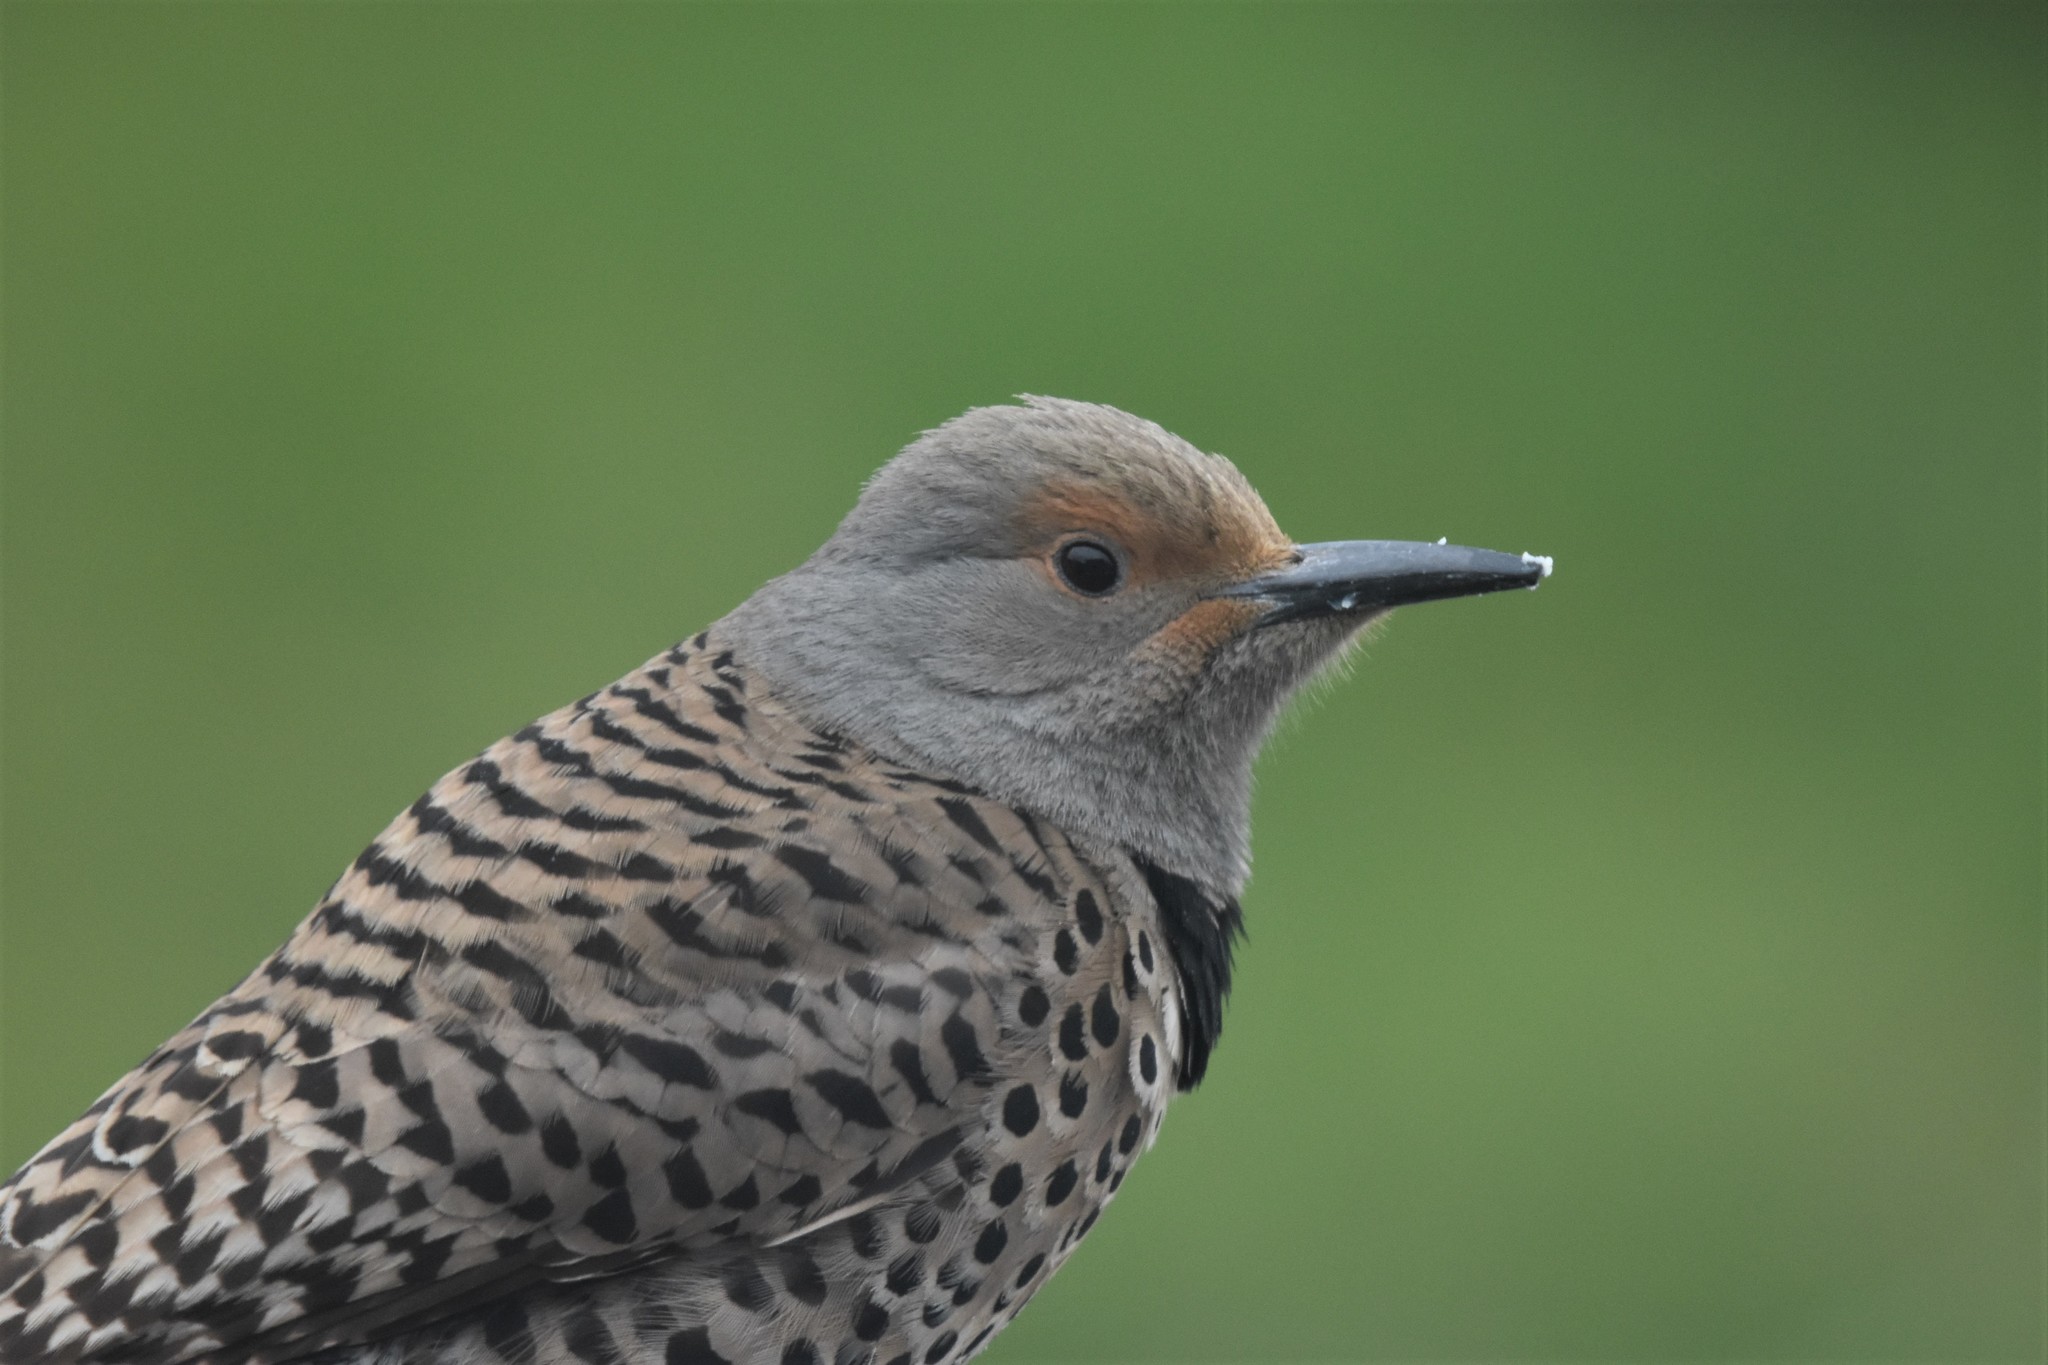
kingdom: Animalia
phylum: Chordata
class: Aves
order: Piciformes
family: Picidae
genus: Colaptes
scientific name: Colaptes auratus
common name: Northern flicker
